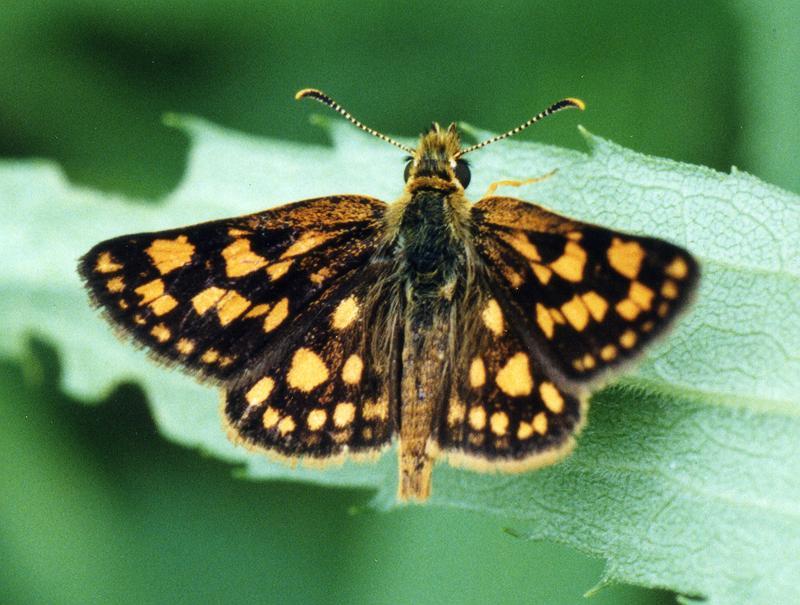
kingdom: Animalia
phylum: Arthropoda
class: Insecta
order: Lepidoptera
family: Hesperiidae
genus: Carterocephalus
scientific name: Carterocephalus mandan
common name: Arctic skipperling
